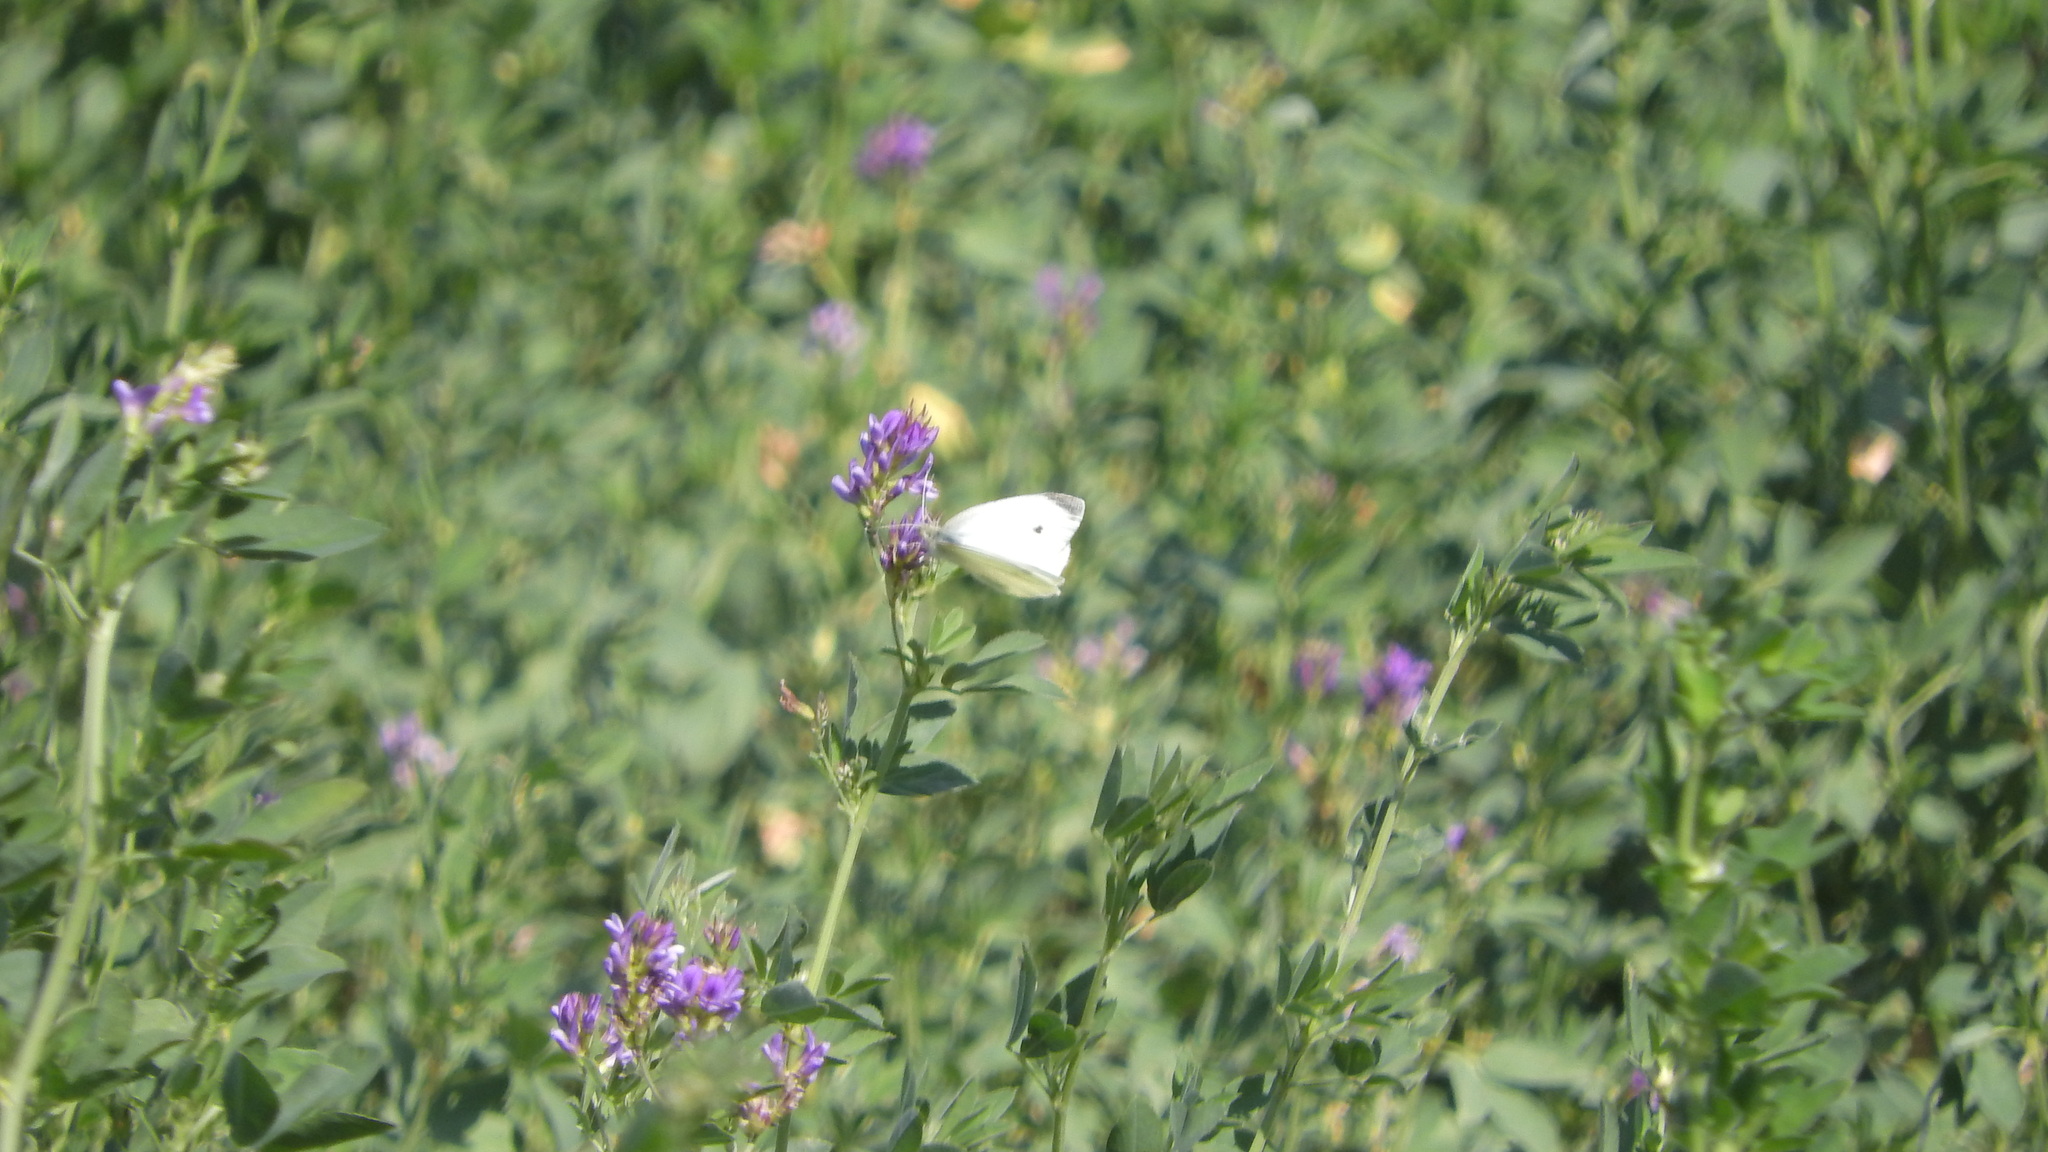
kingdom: Animalia
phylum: Arthropoda
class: Insecta
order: Lepidoptera
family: Pieridae
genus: Pieris
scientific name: Pieris rapae
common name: Small white
